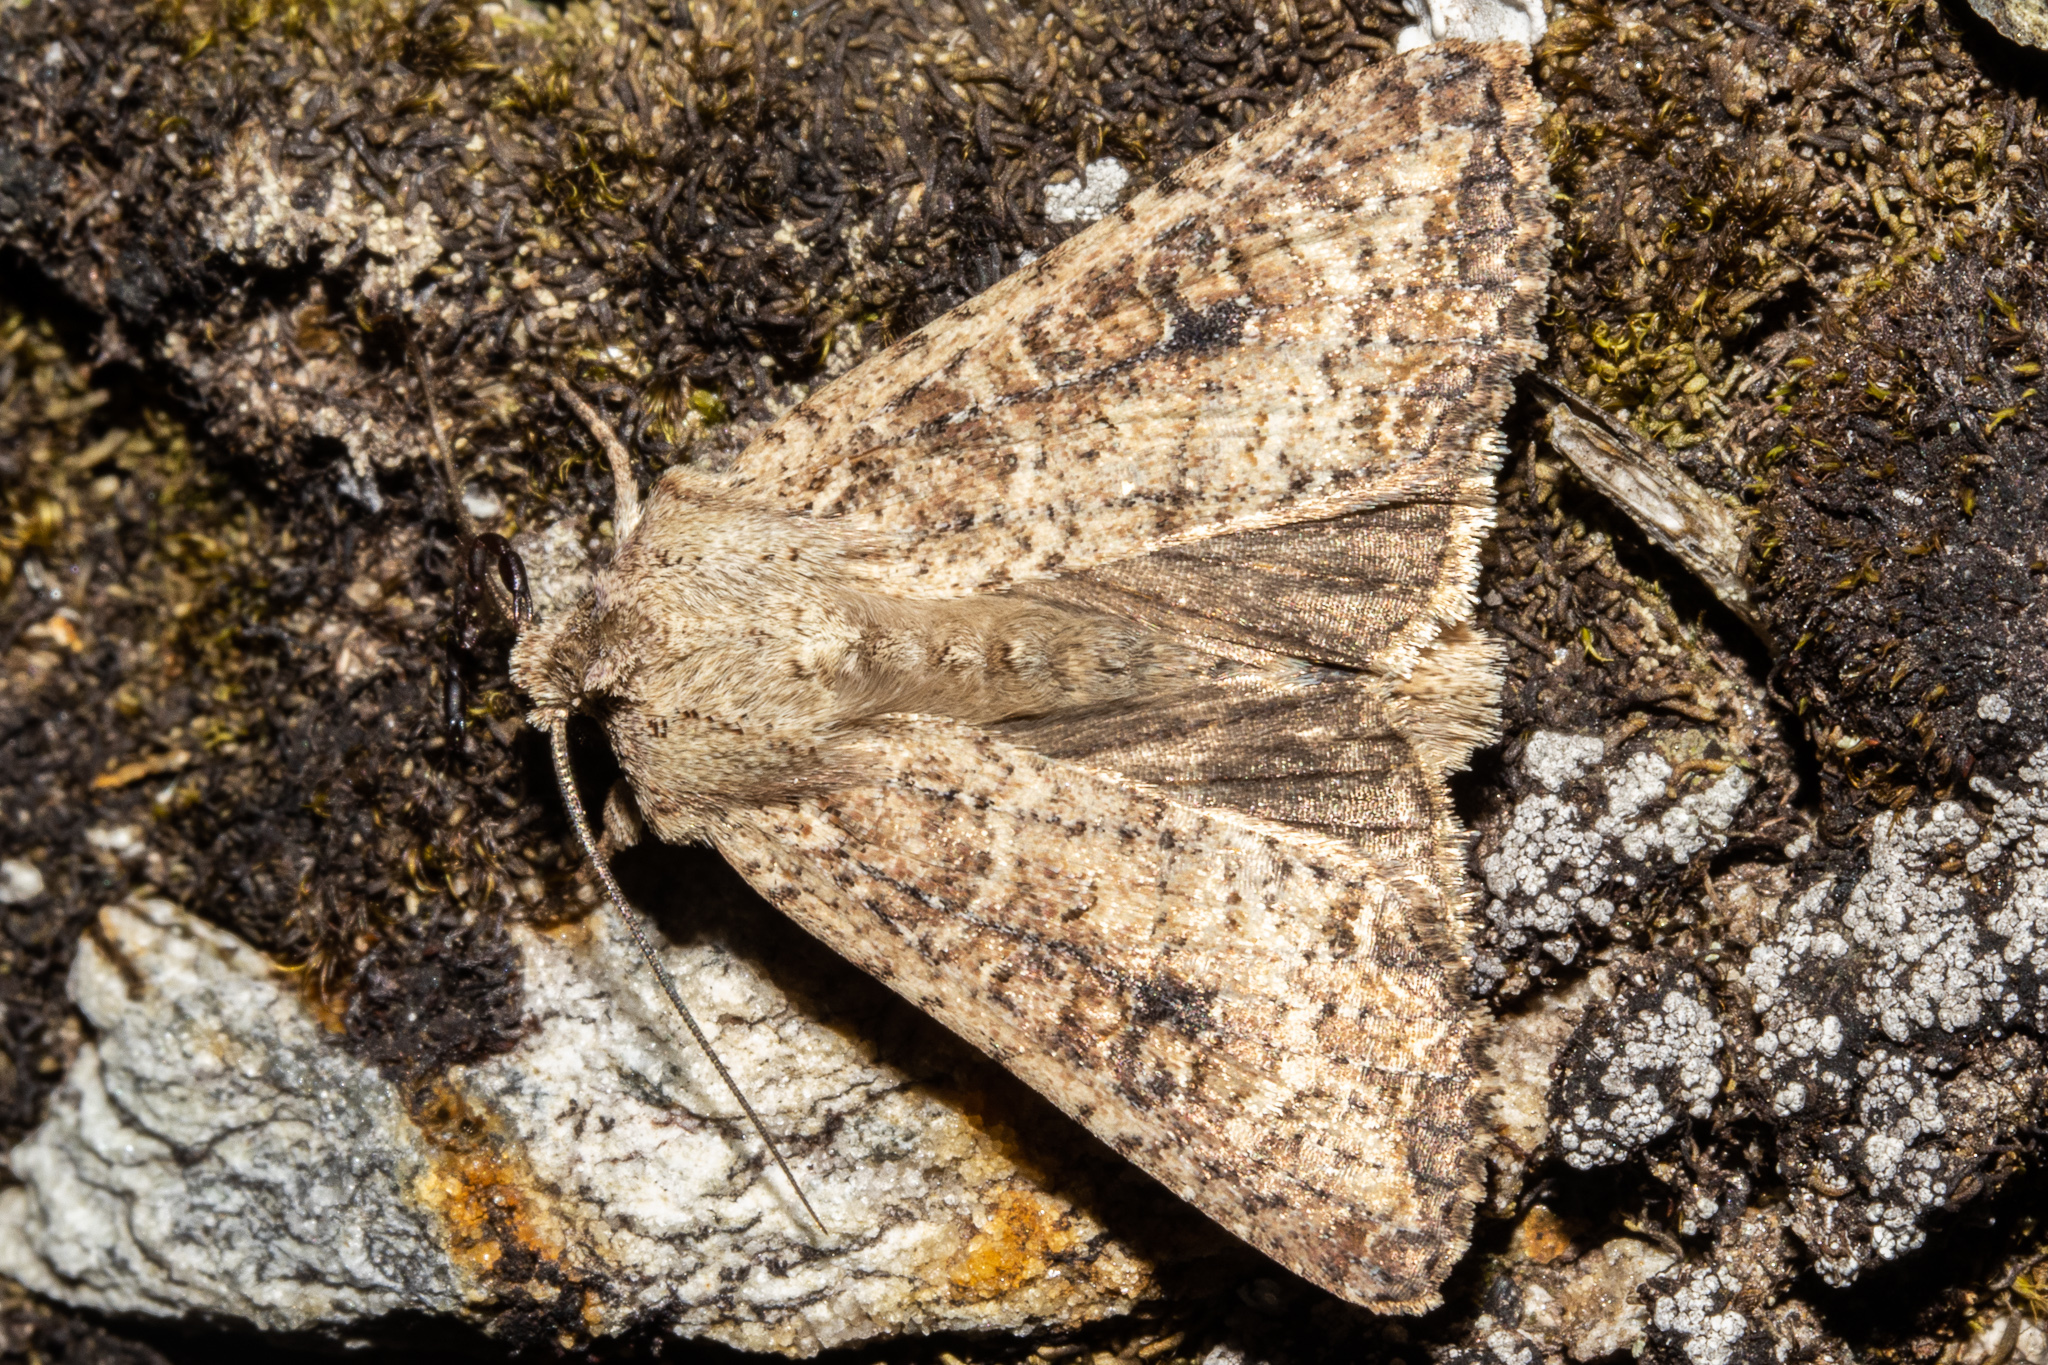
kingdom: Animalia
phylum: Arthropoda
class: Insecta
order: Lepidoptera
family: Noctuidae
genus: Ichneutica
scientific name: Ichneutica morosa
